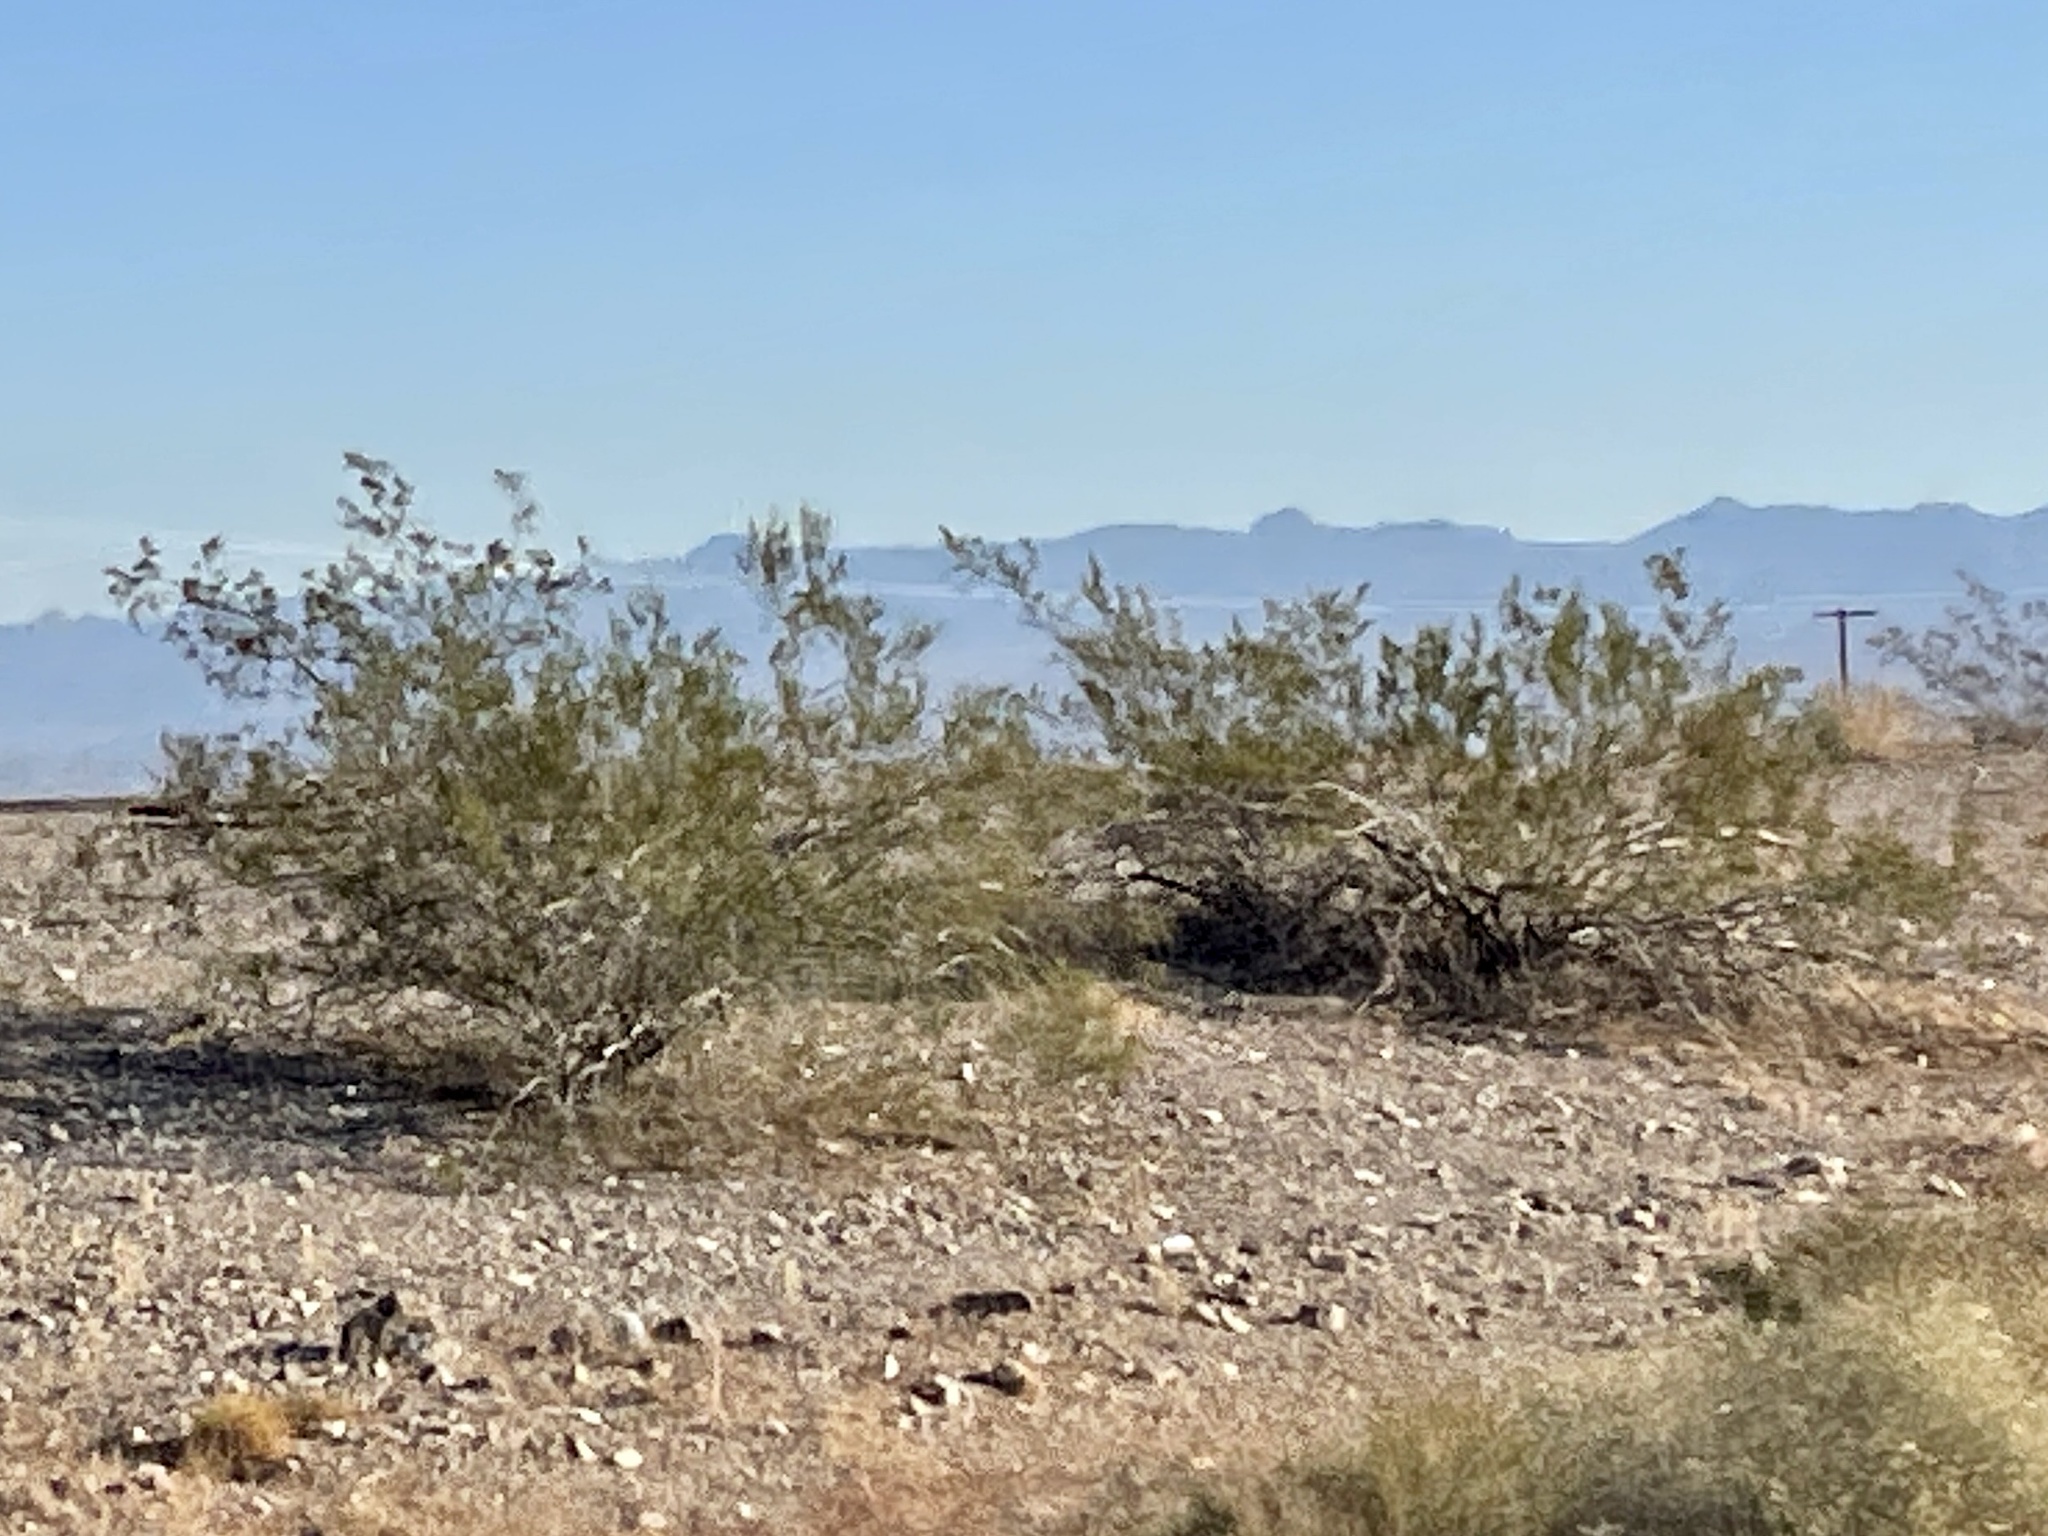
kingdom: Plantae
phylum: Tracheophyta
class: Magnoliopsida
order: Zygophyllales
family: Zygophyllaceae
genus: Larrea
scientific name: Larrea tridentata
